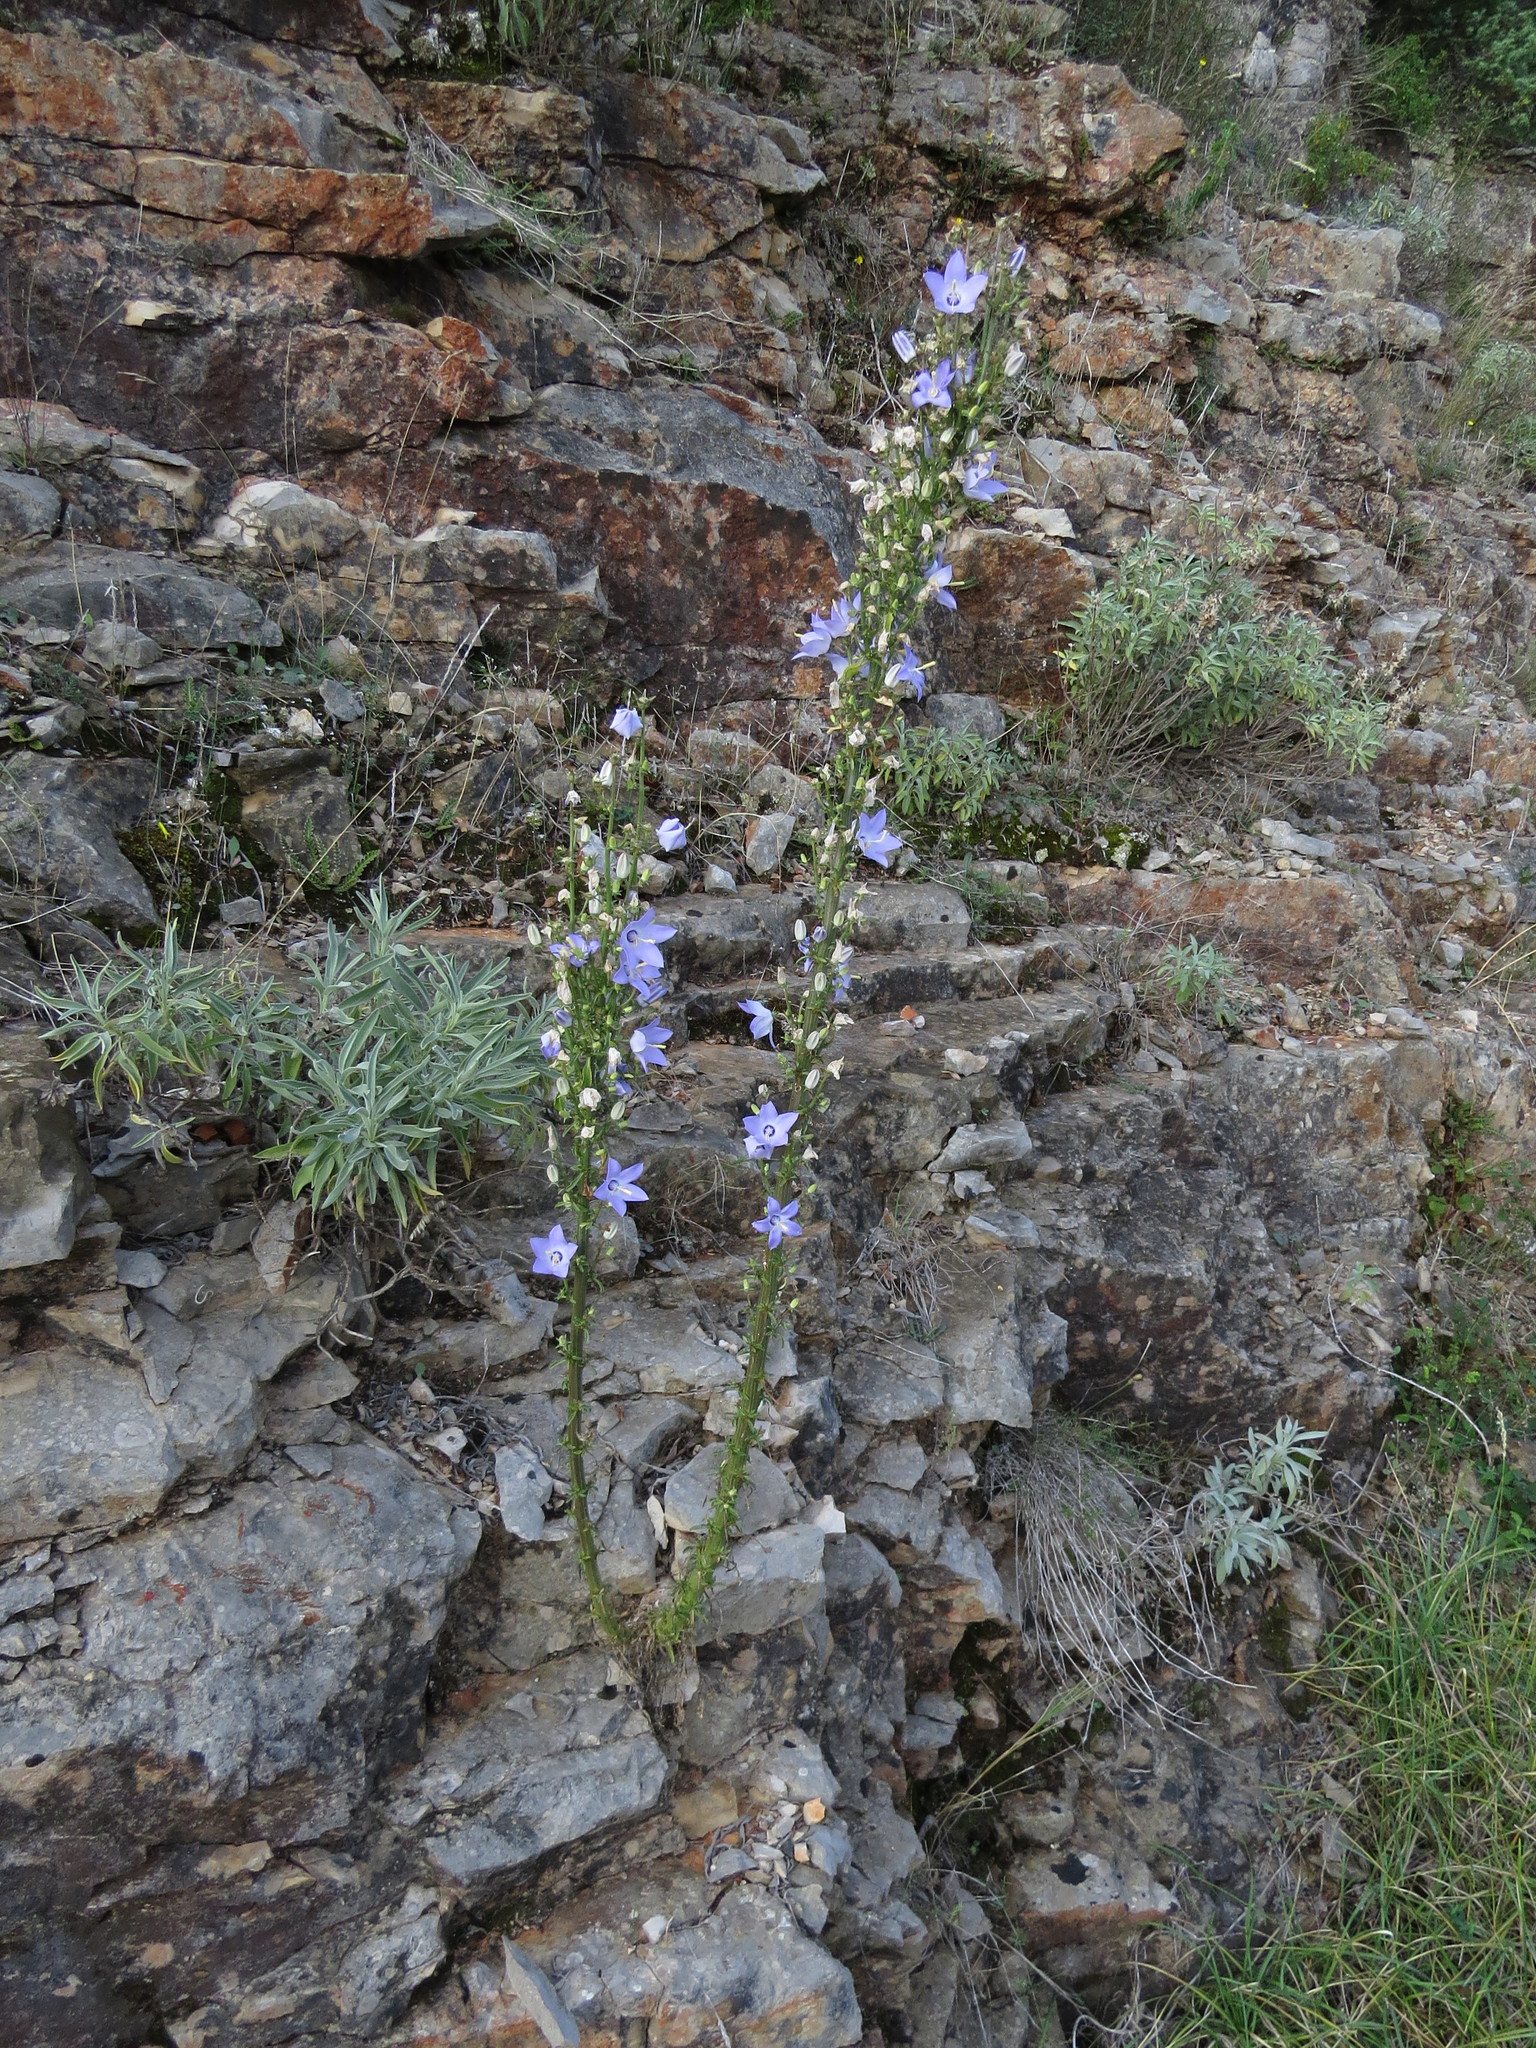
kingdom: Plantae
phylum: Tracheophyta
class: Magnoliopsida
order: Asterales
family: Campanulaceae
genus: Campanula
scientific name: Campanula pyramidalis
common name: Chimney bellflower
